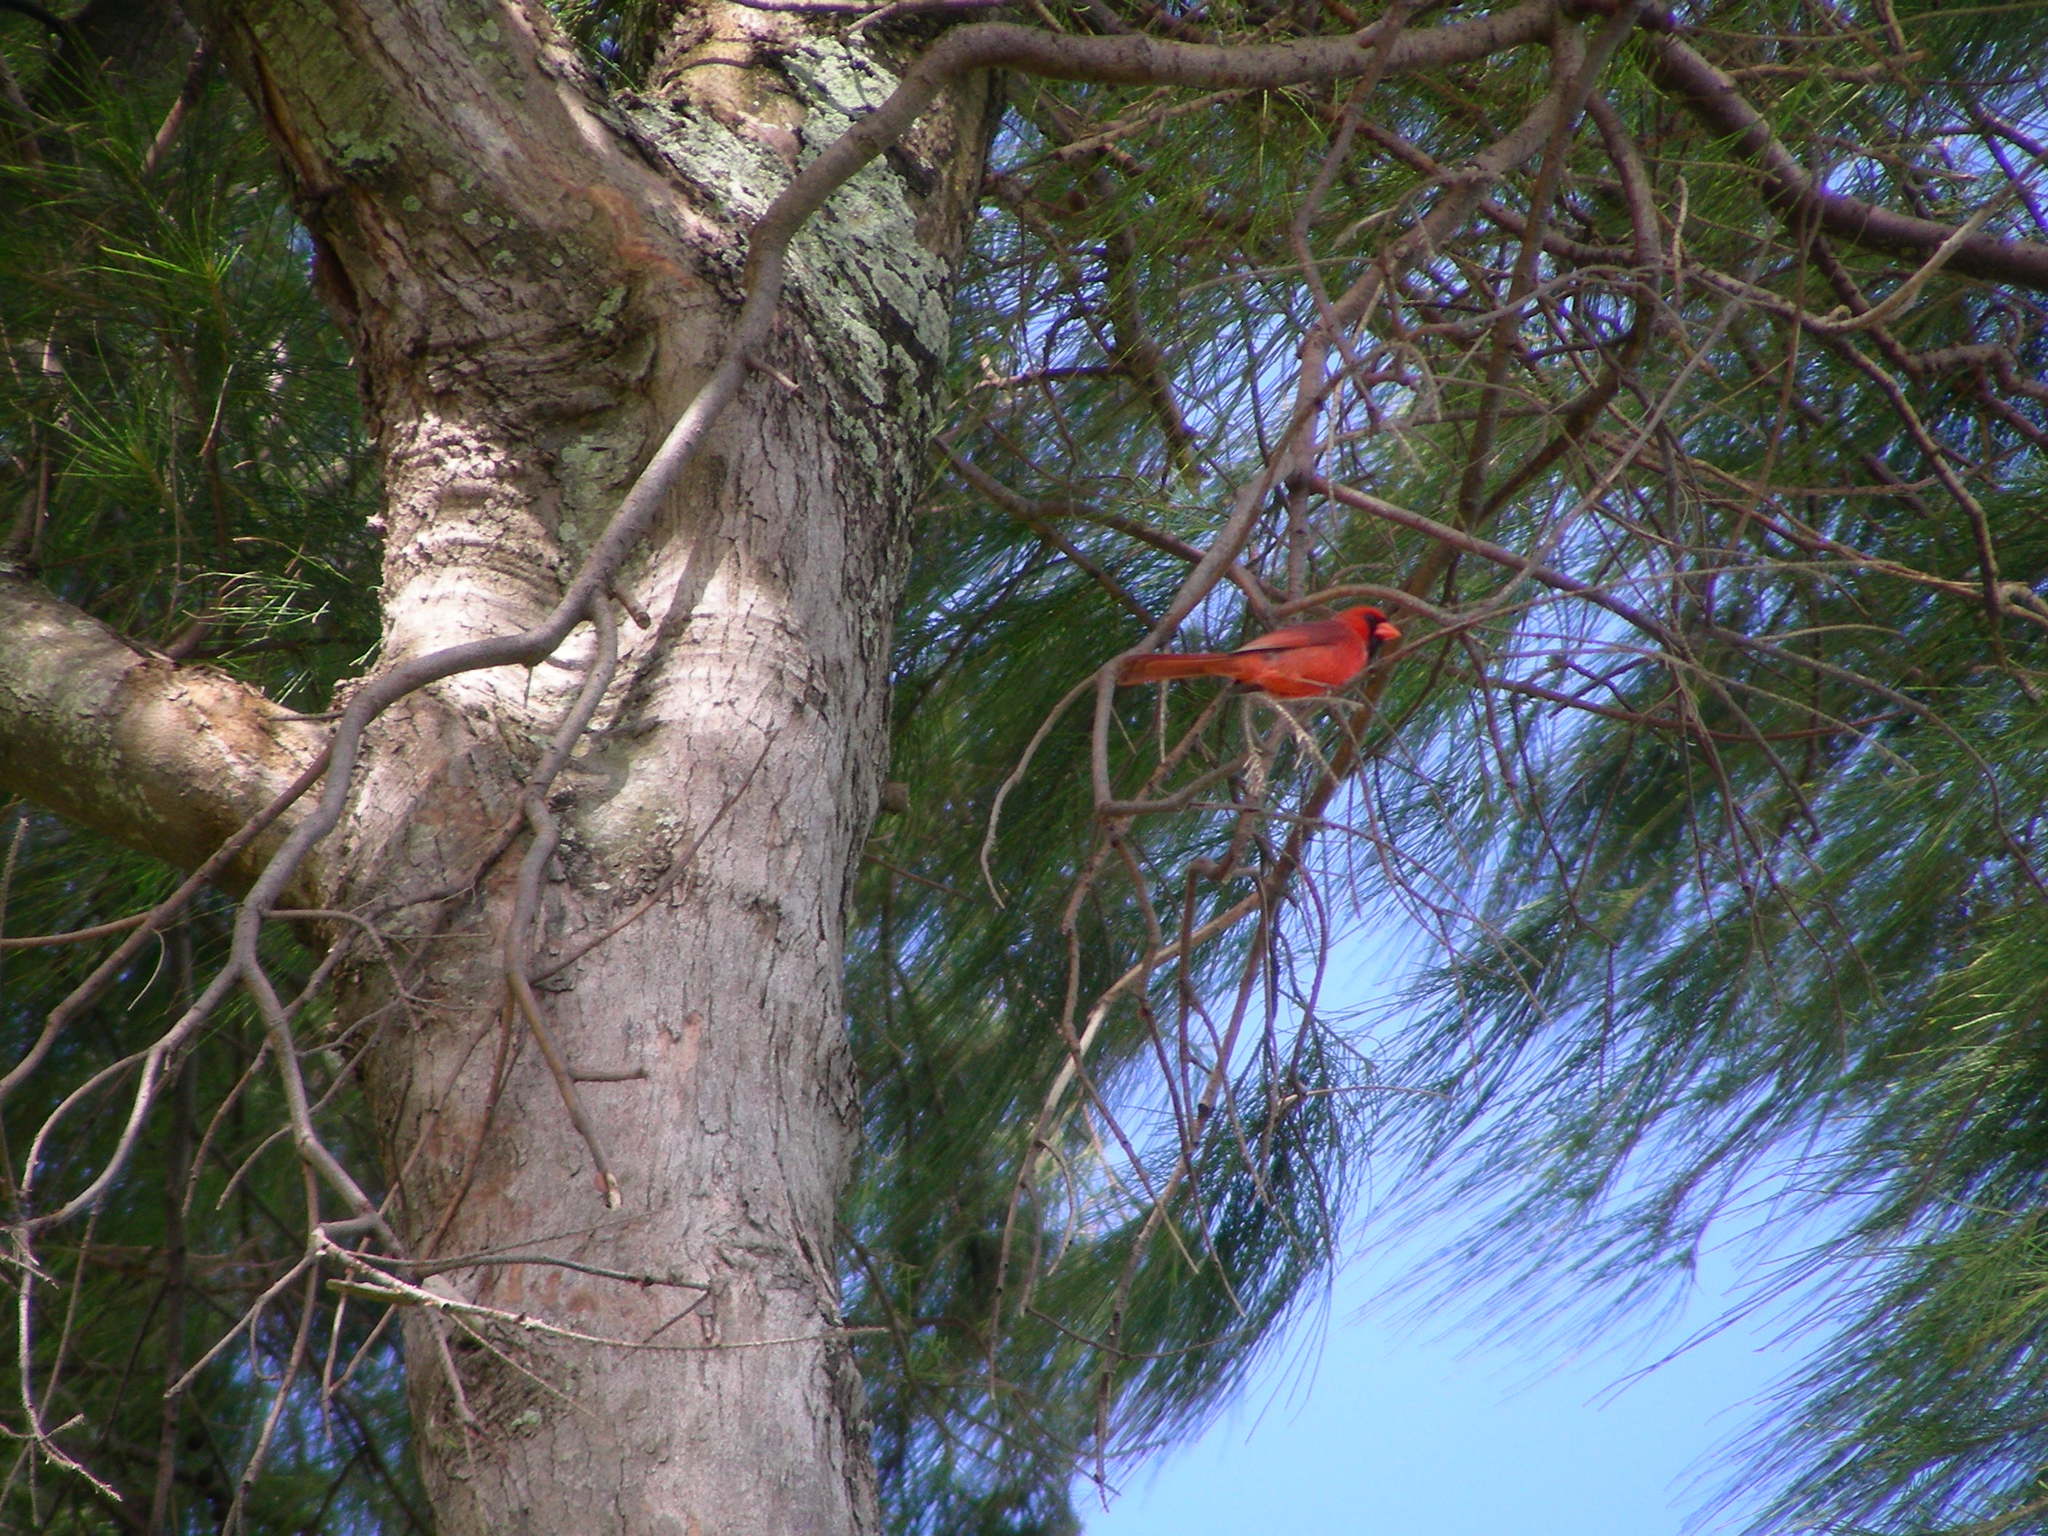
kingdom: Animalia
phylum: Chordata
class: Aves
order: Passeriformes
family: Cardinalidae
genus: Cardinalis
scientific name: Cardinalis cardinalis
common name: Northern cardinal
